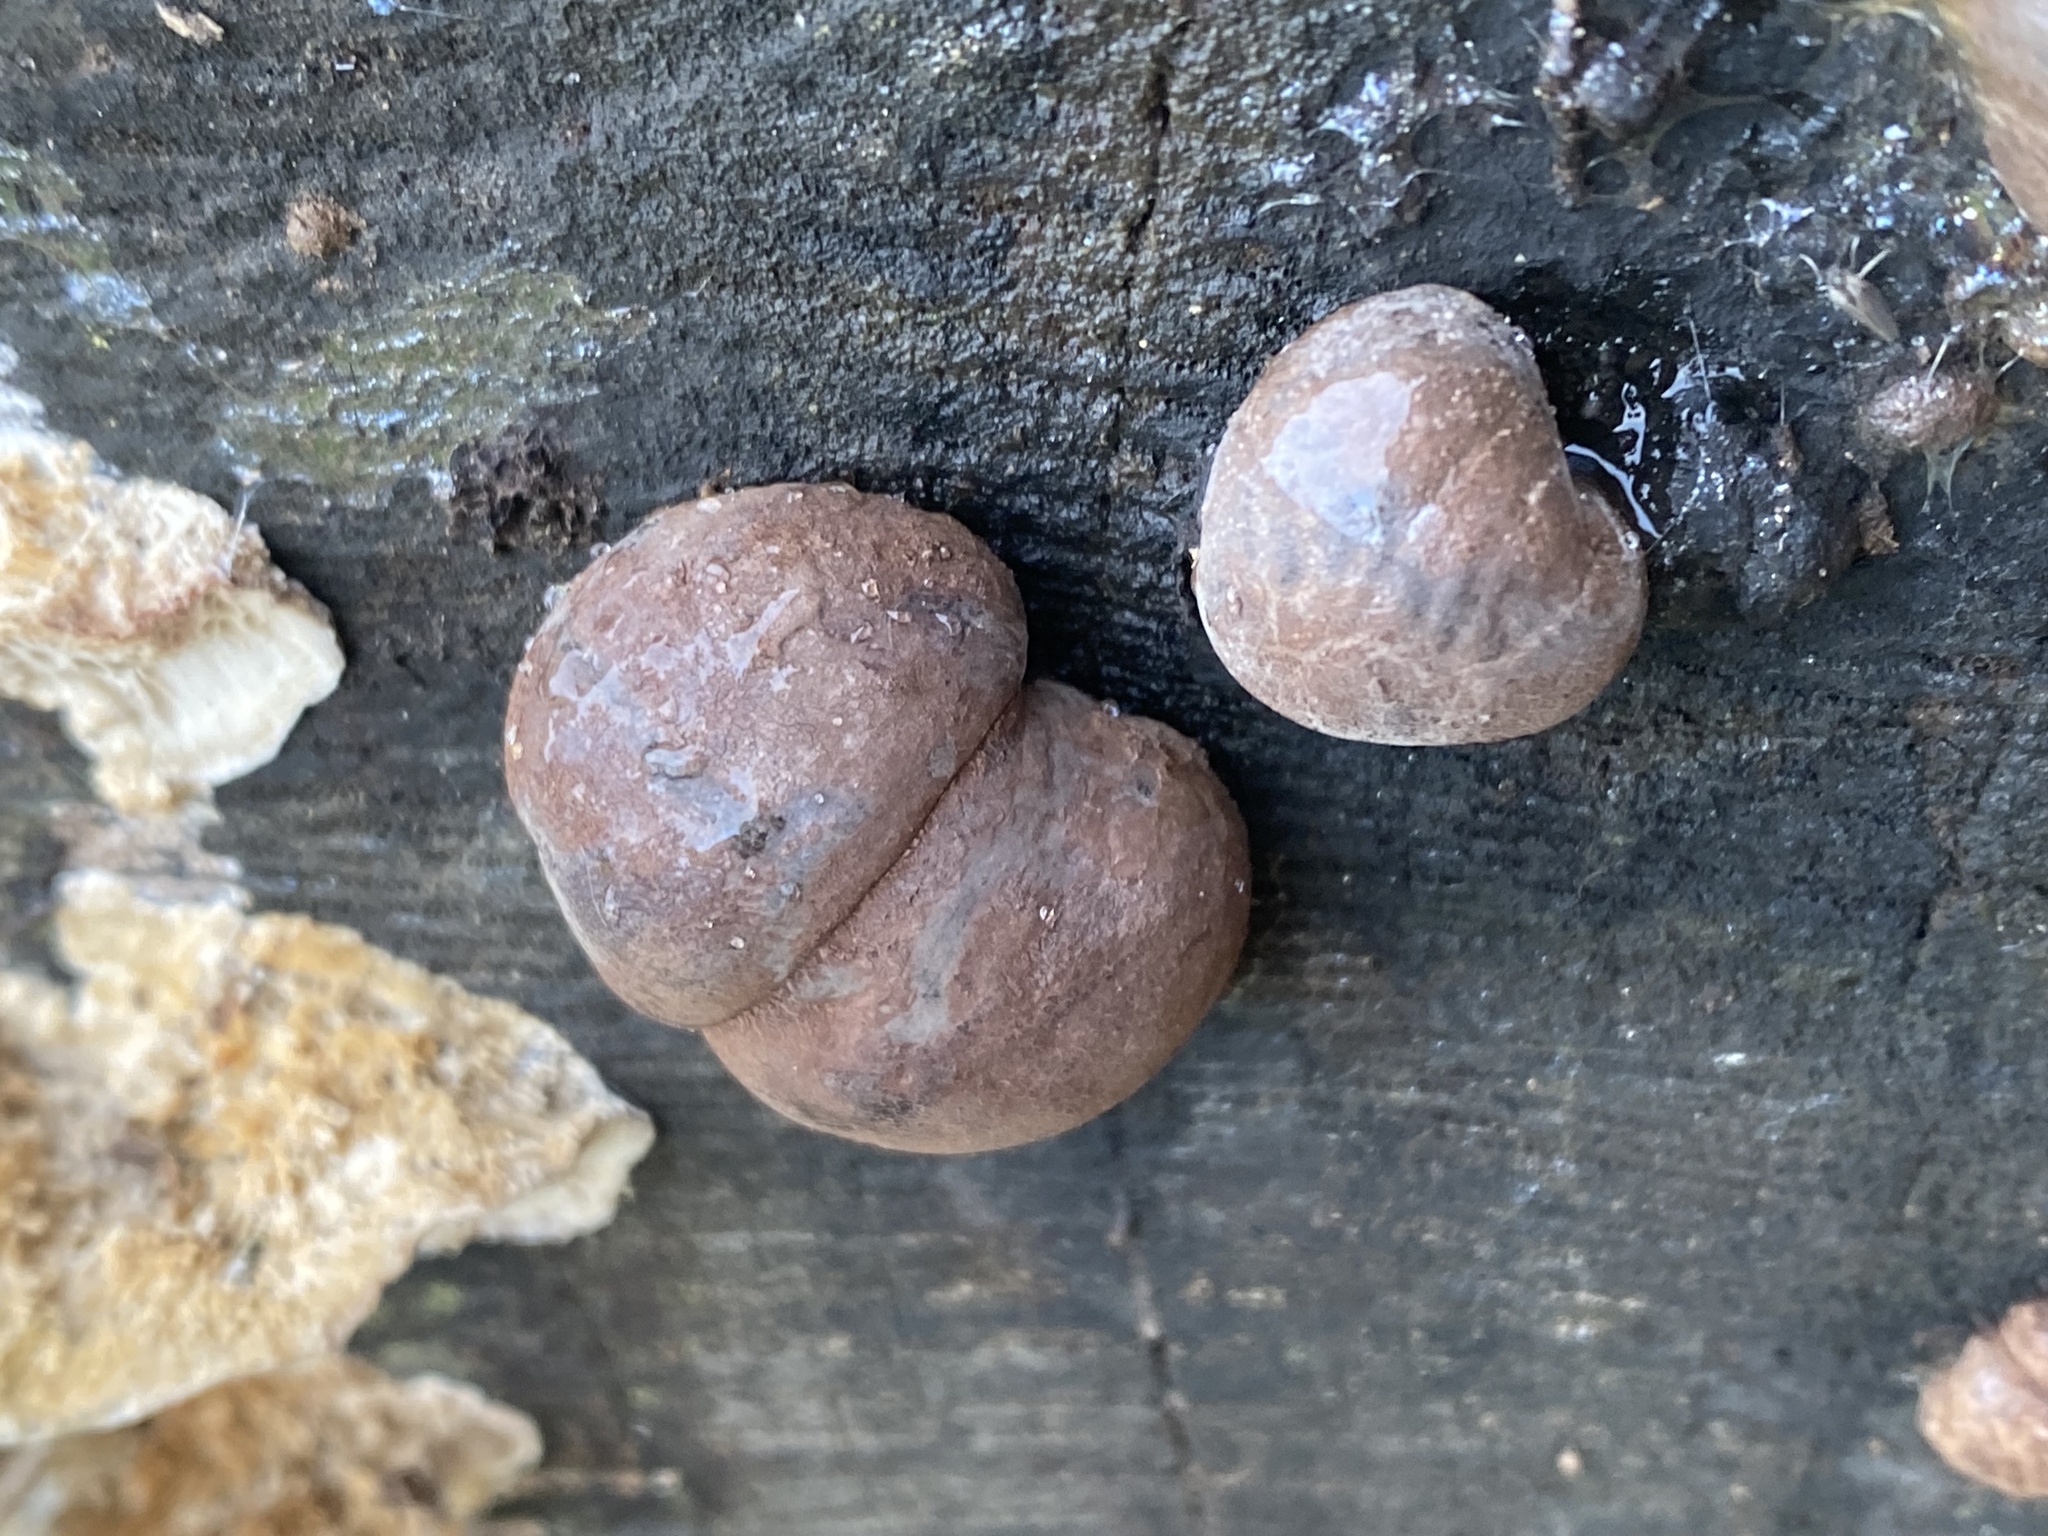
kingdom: Fungi
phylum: Ascomycota
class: Sordariomycetes
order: Xylariales
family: Hypoxylaceae
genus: Daldinia
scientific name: Daldinia concentrica
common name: Cramp balls
